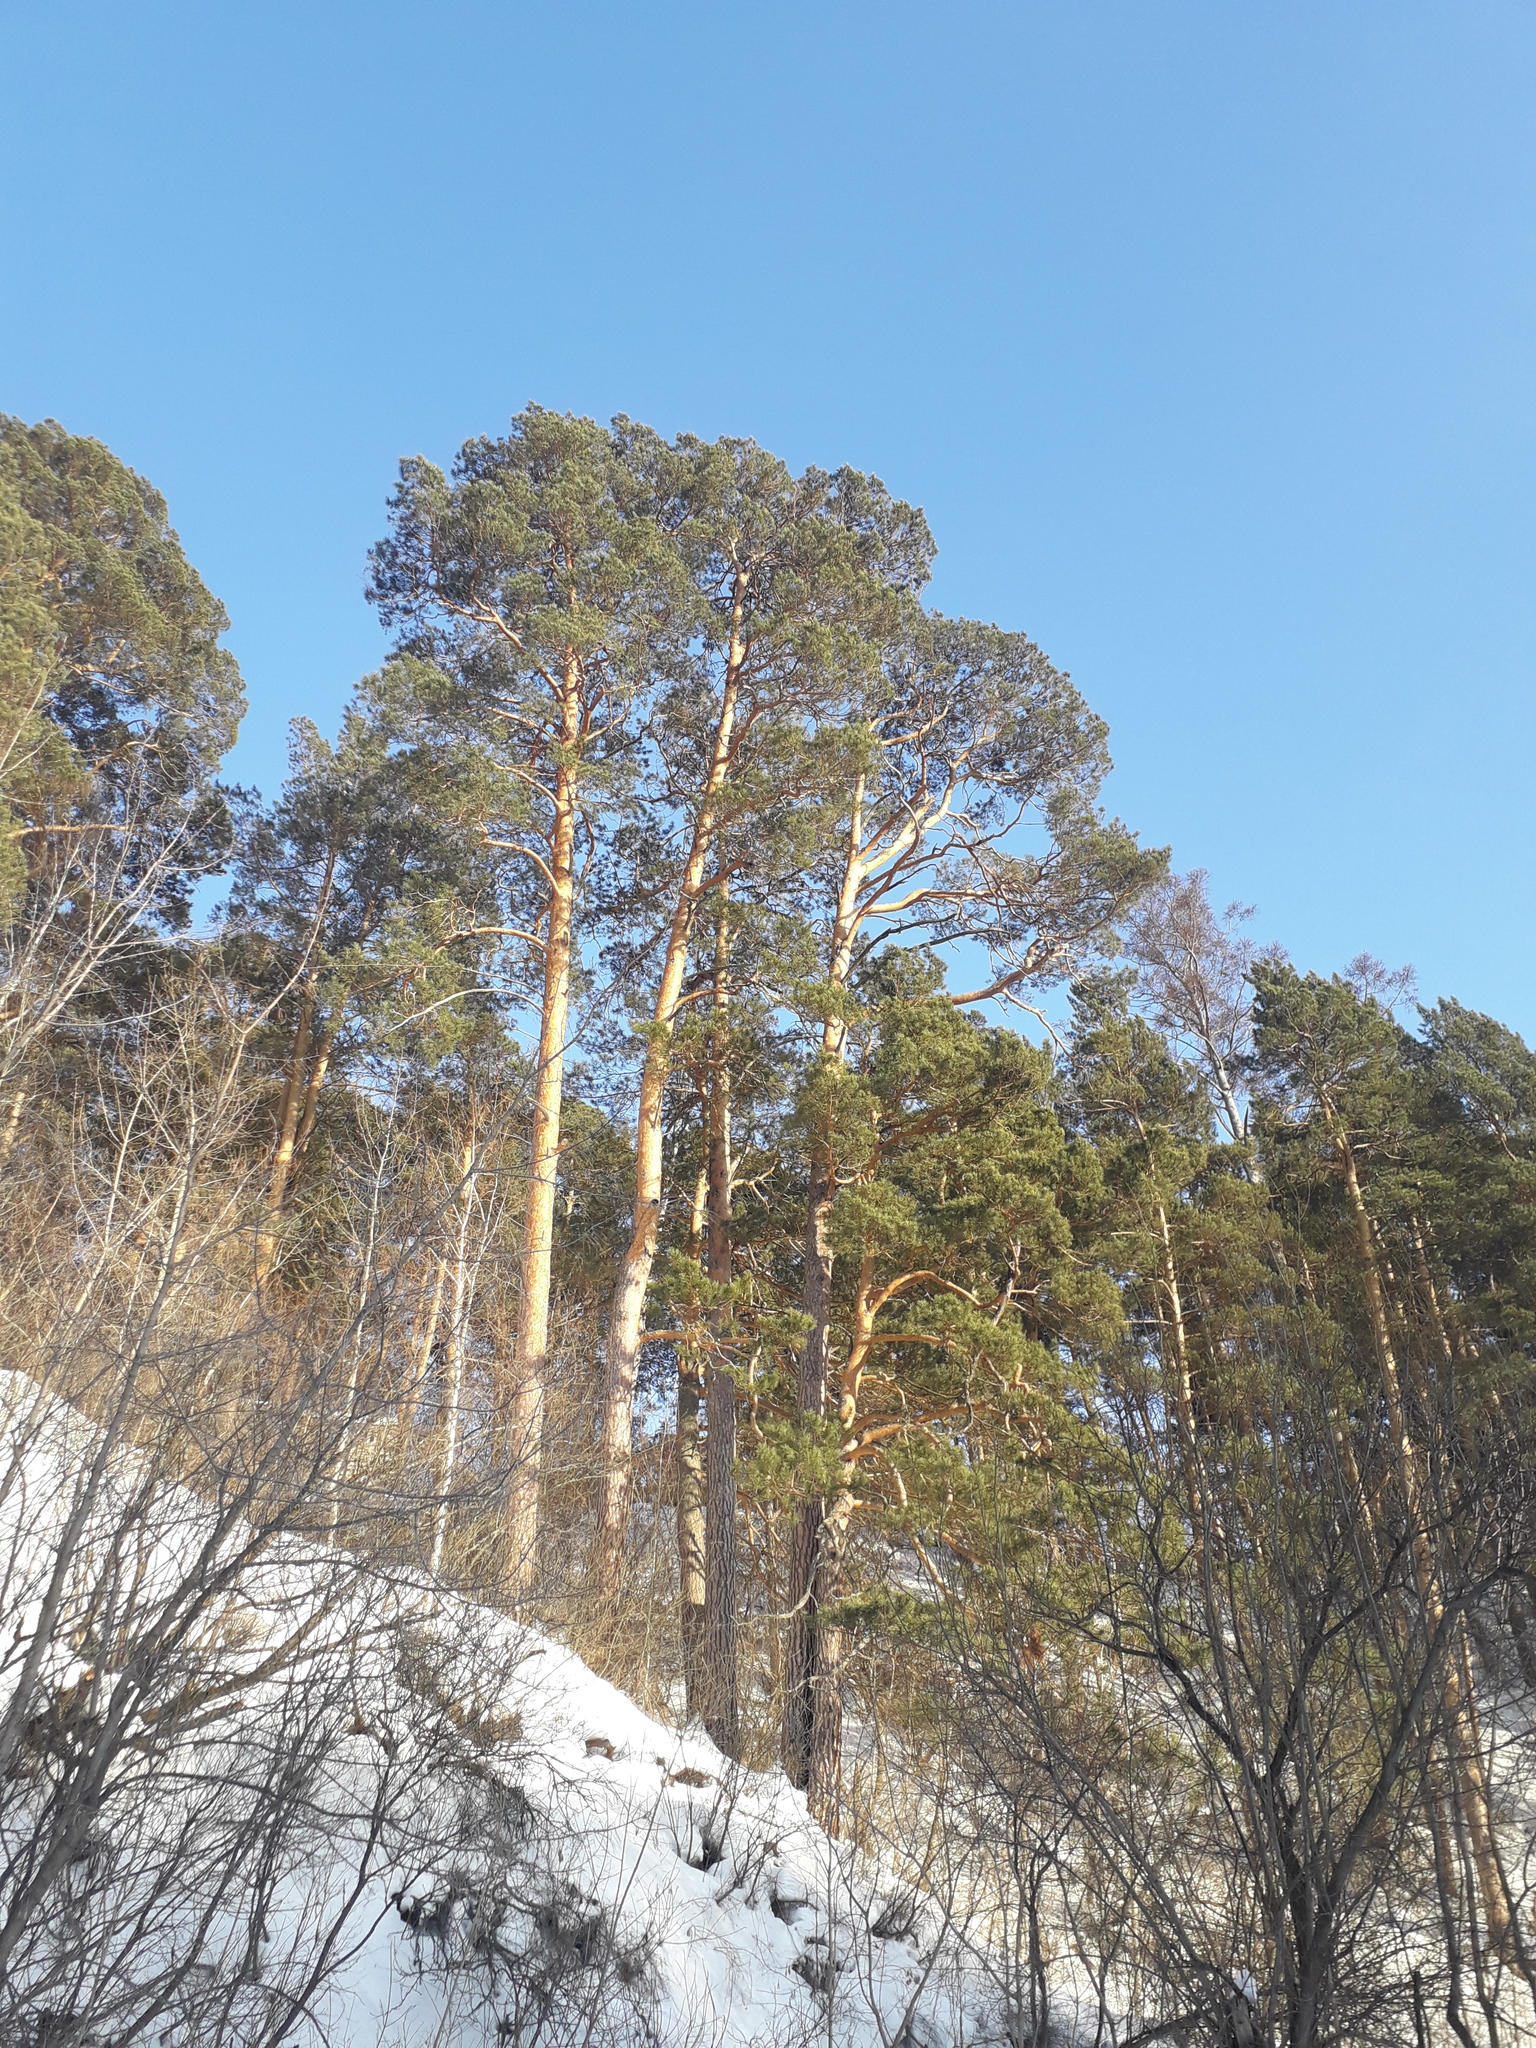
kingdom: Plantae
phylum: Tracheophyta
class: Pinopsida
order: Pinales
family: Pinaceae
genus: Pinus
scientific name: Pinus sylvestris
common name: Scots pine
